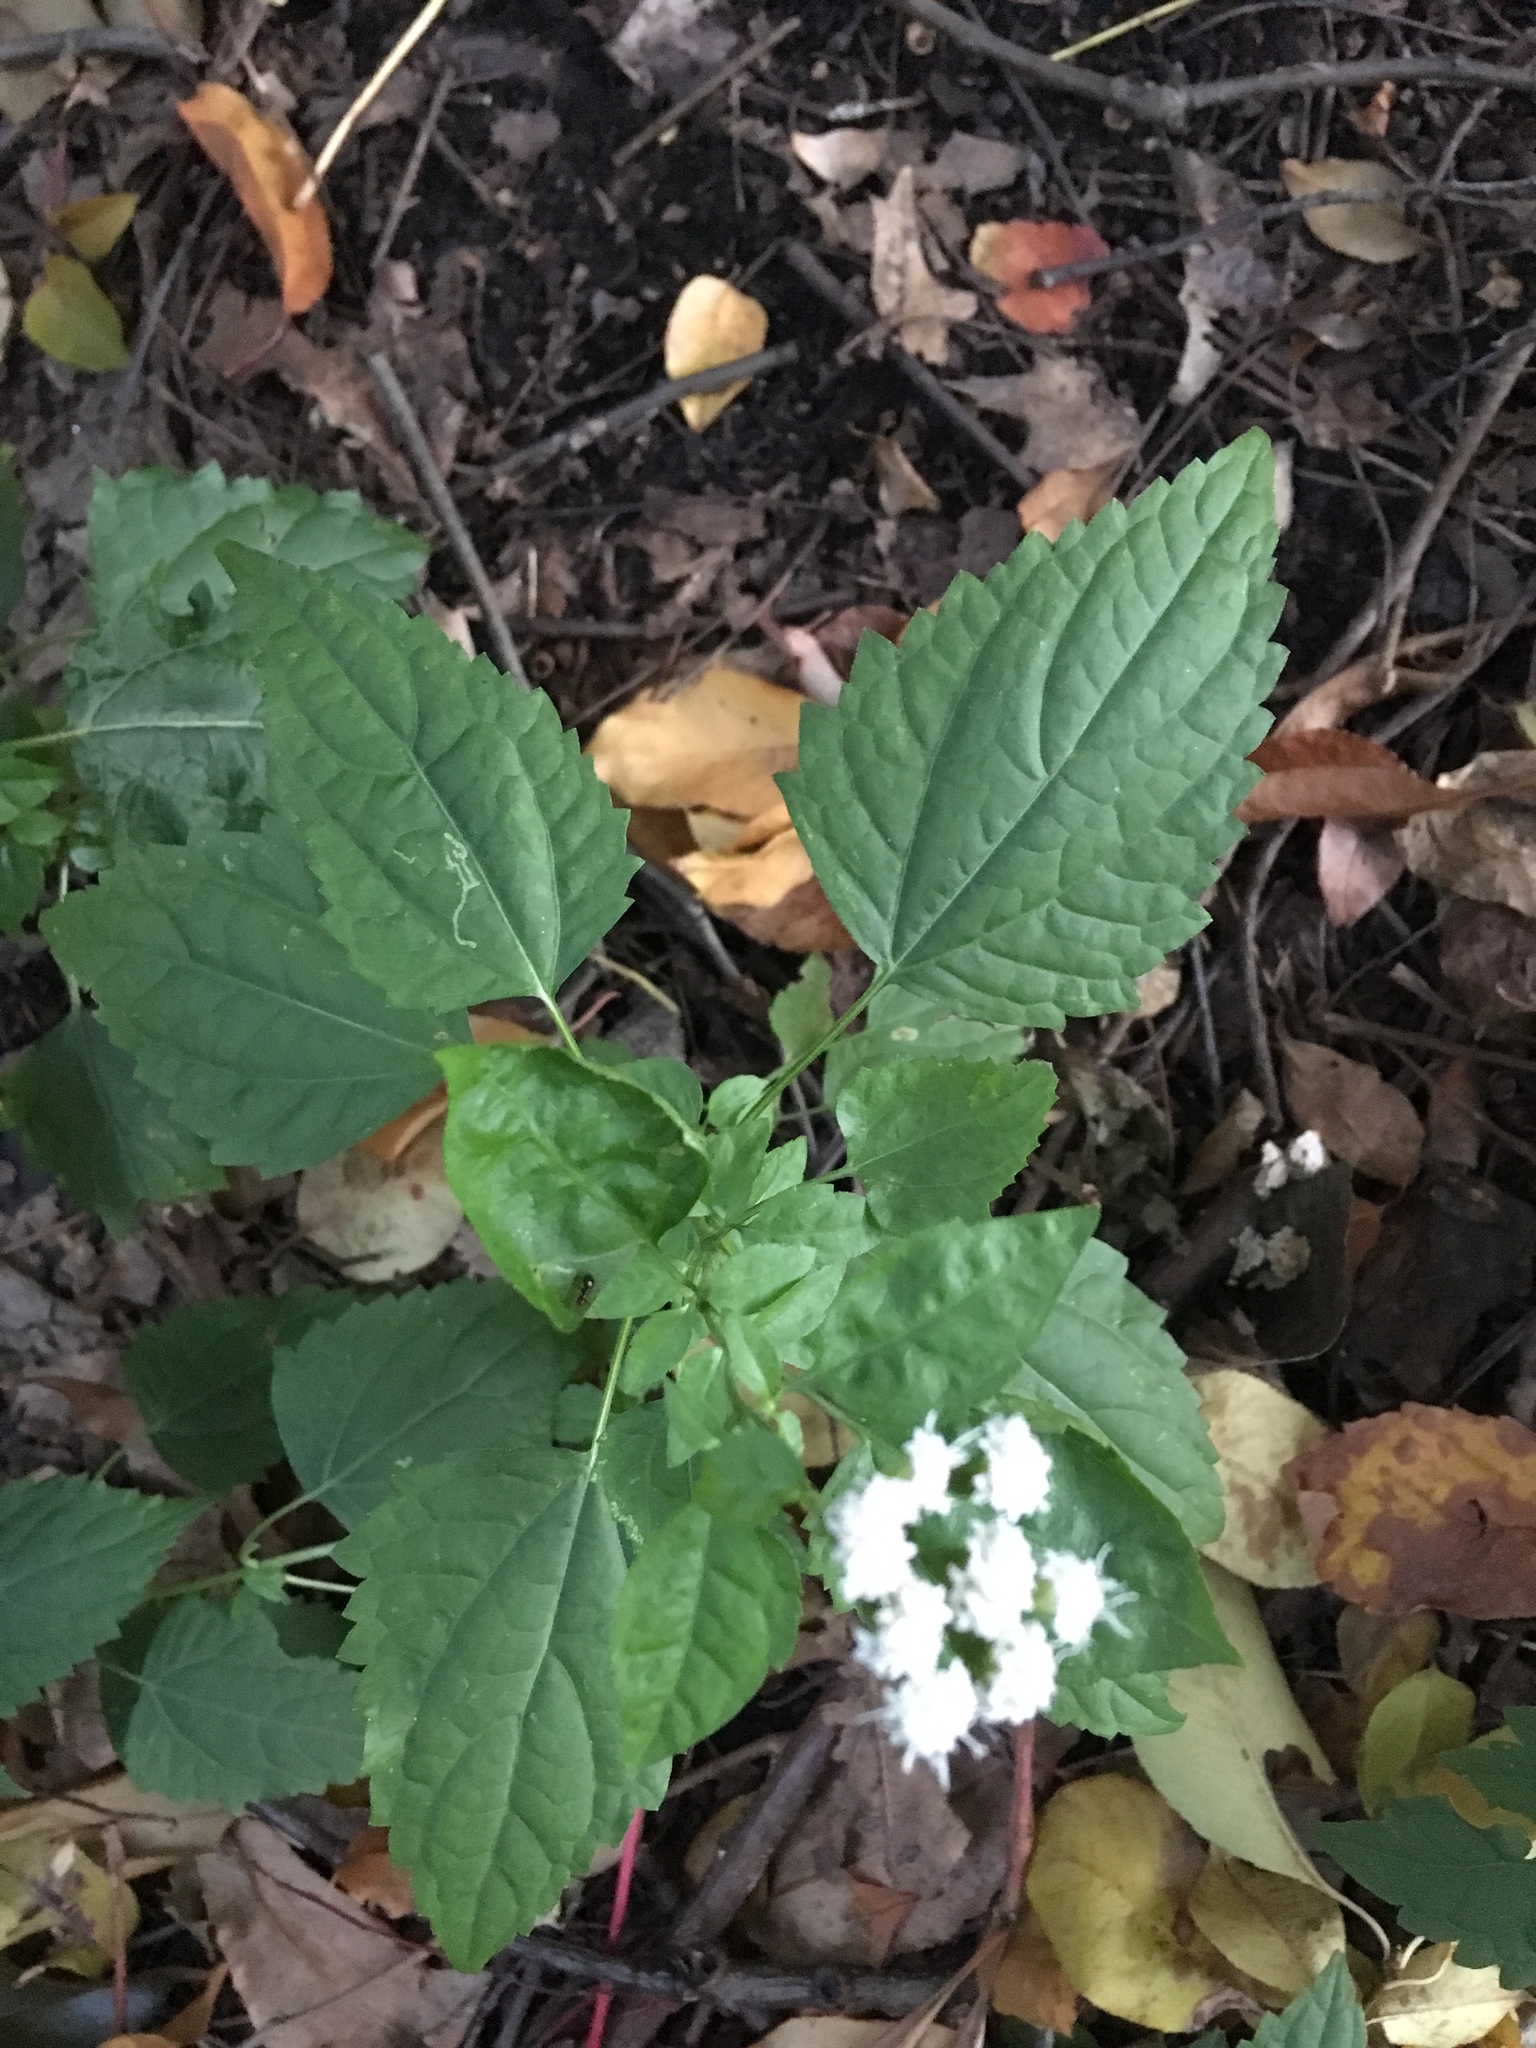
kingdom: Plantae
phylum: Tracheophyta
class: Magnoliopsida
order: Asterales
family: Asteraceae
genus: Ageratina
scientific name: Ageratina altissima
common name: White snakeroot
